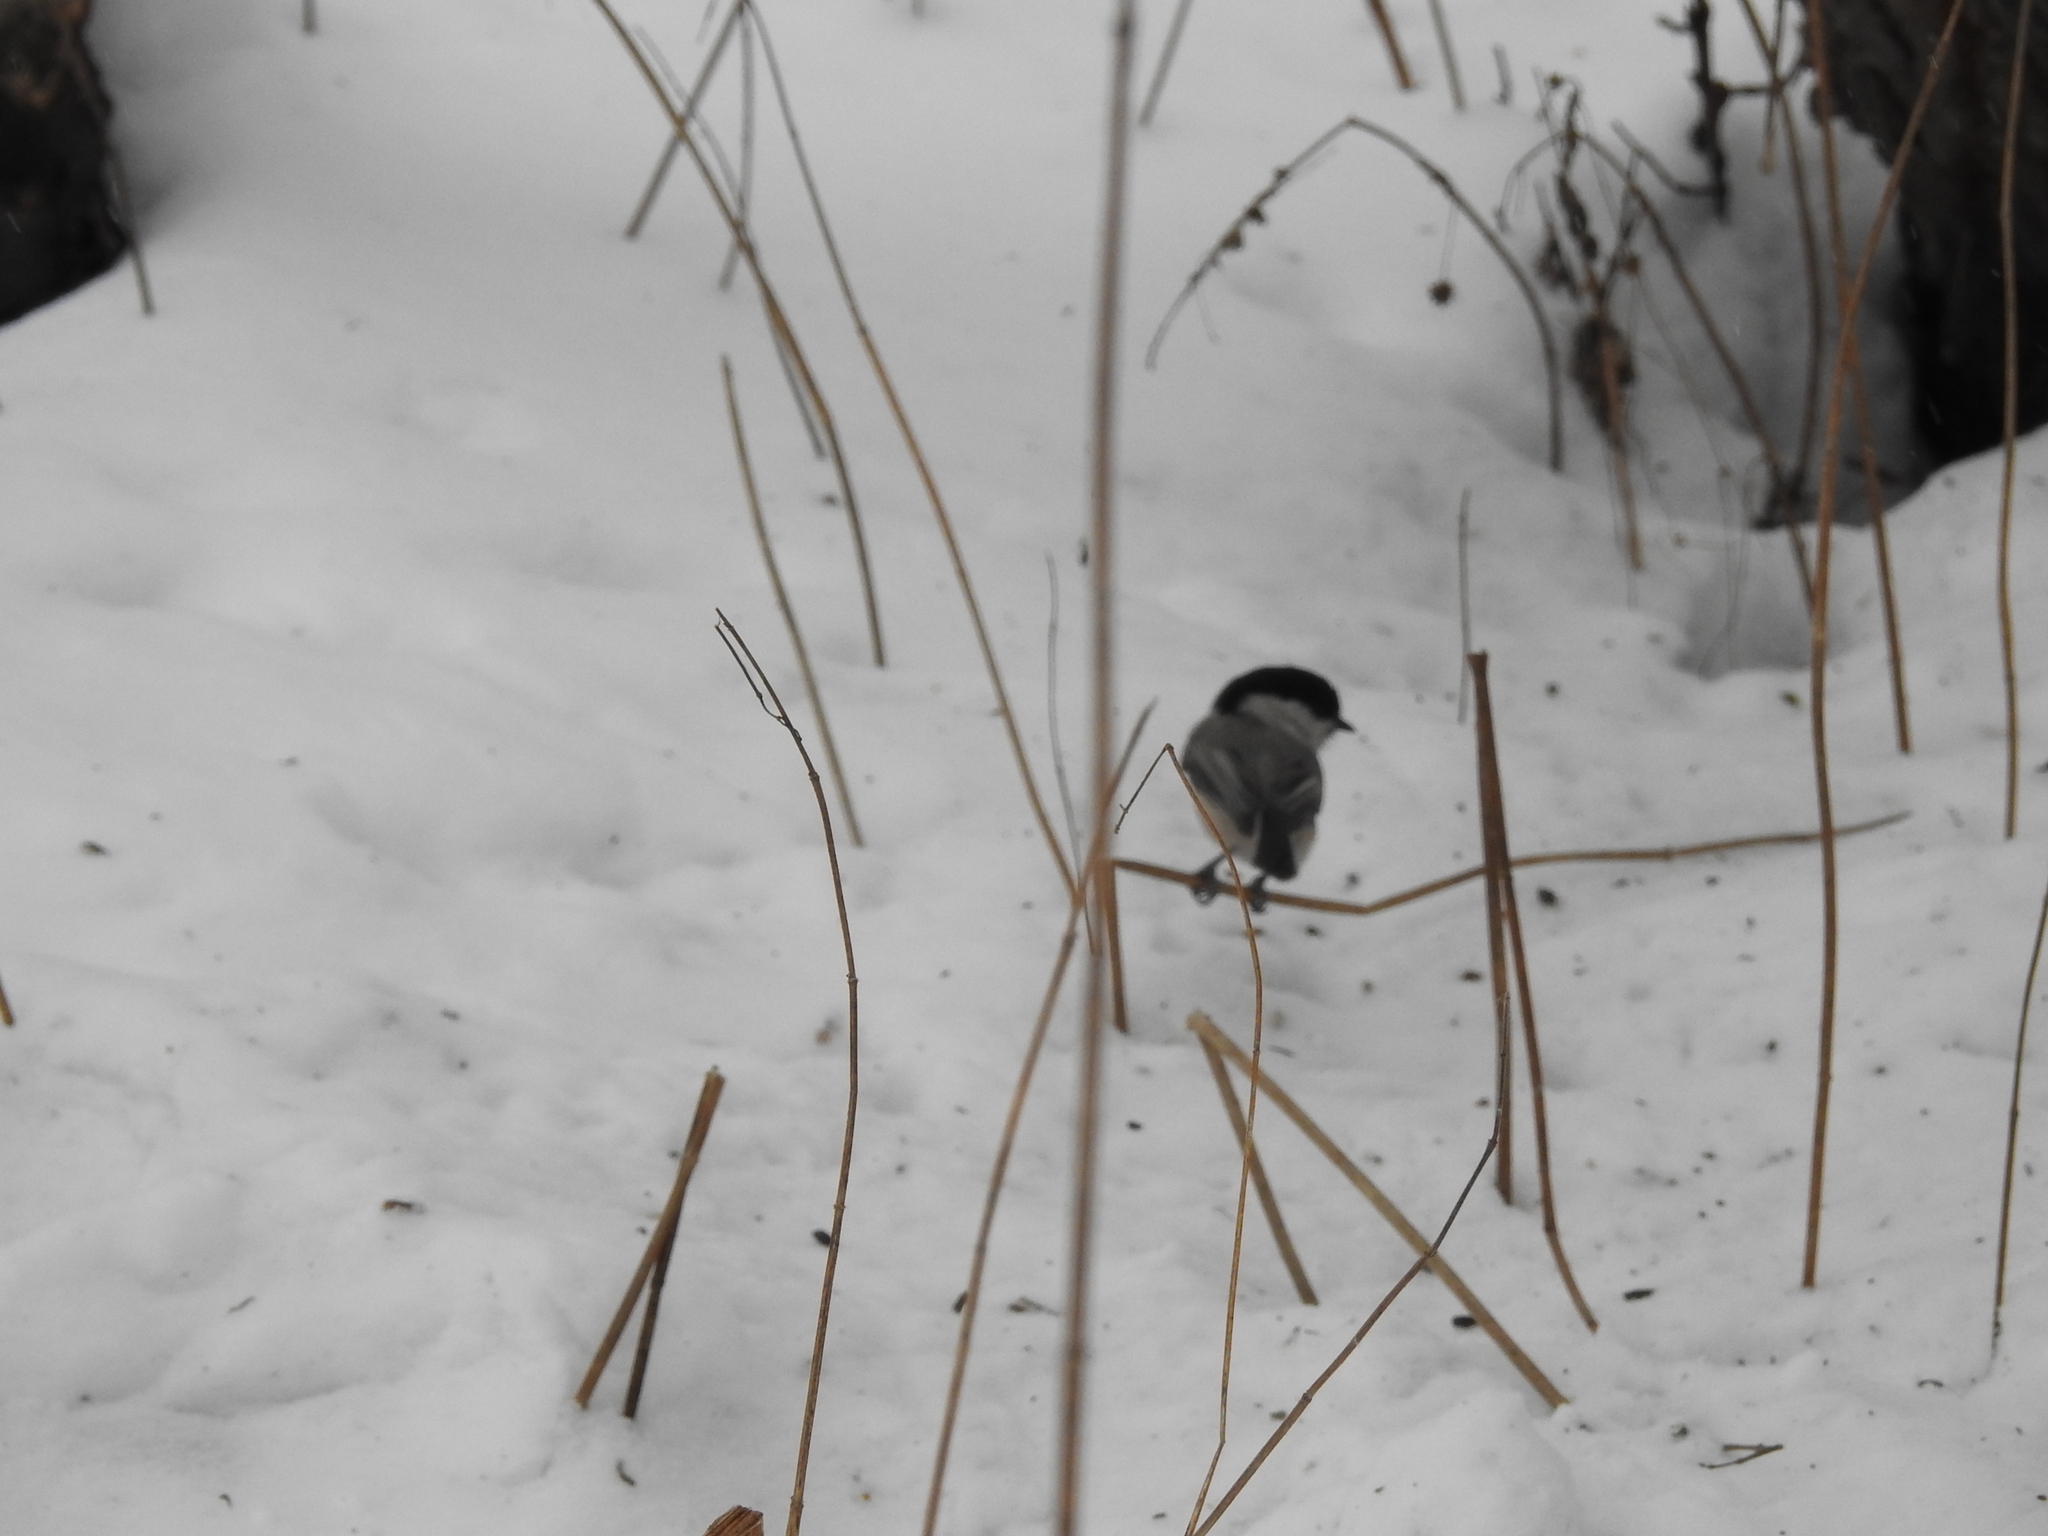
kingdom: Animalia
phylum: Chordata
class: Aves
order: Passeriformes
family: Paridae
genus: Poecile
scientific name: Poecile montanus
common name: Willow tit
